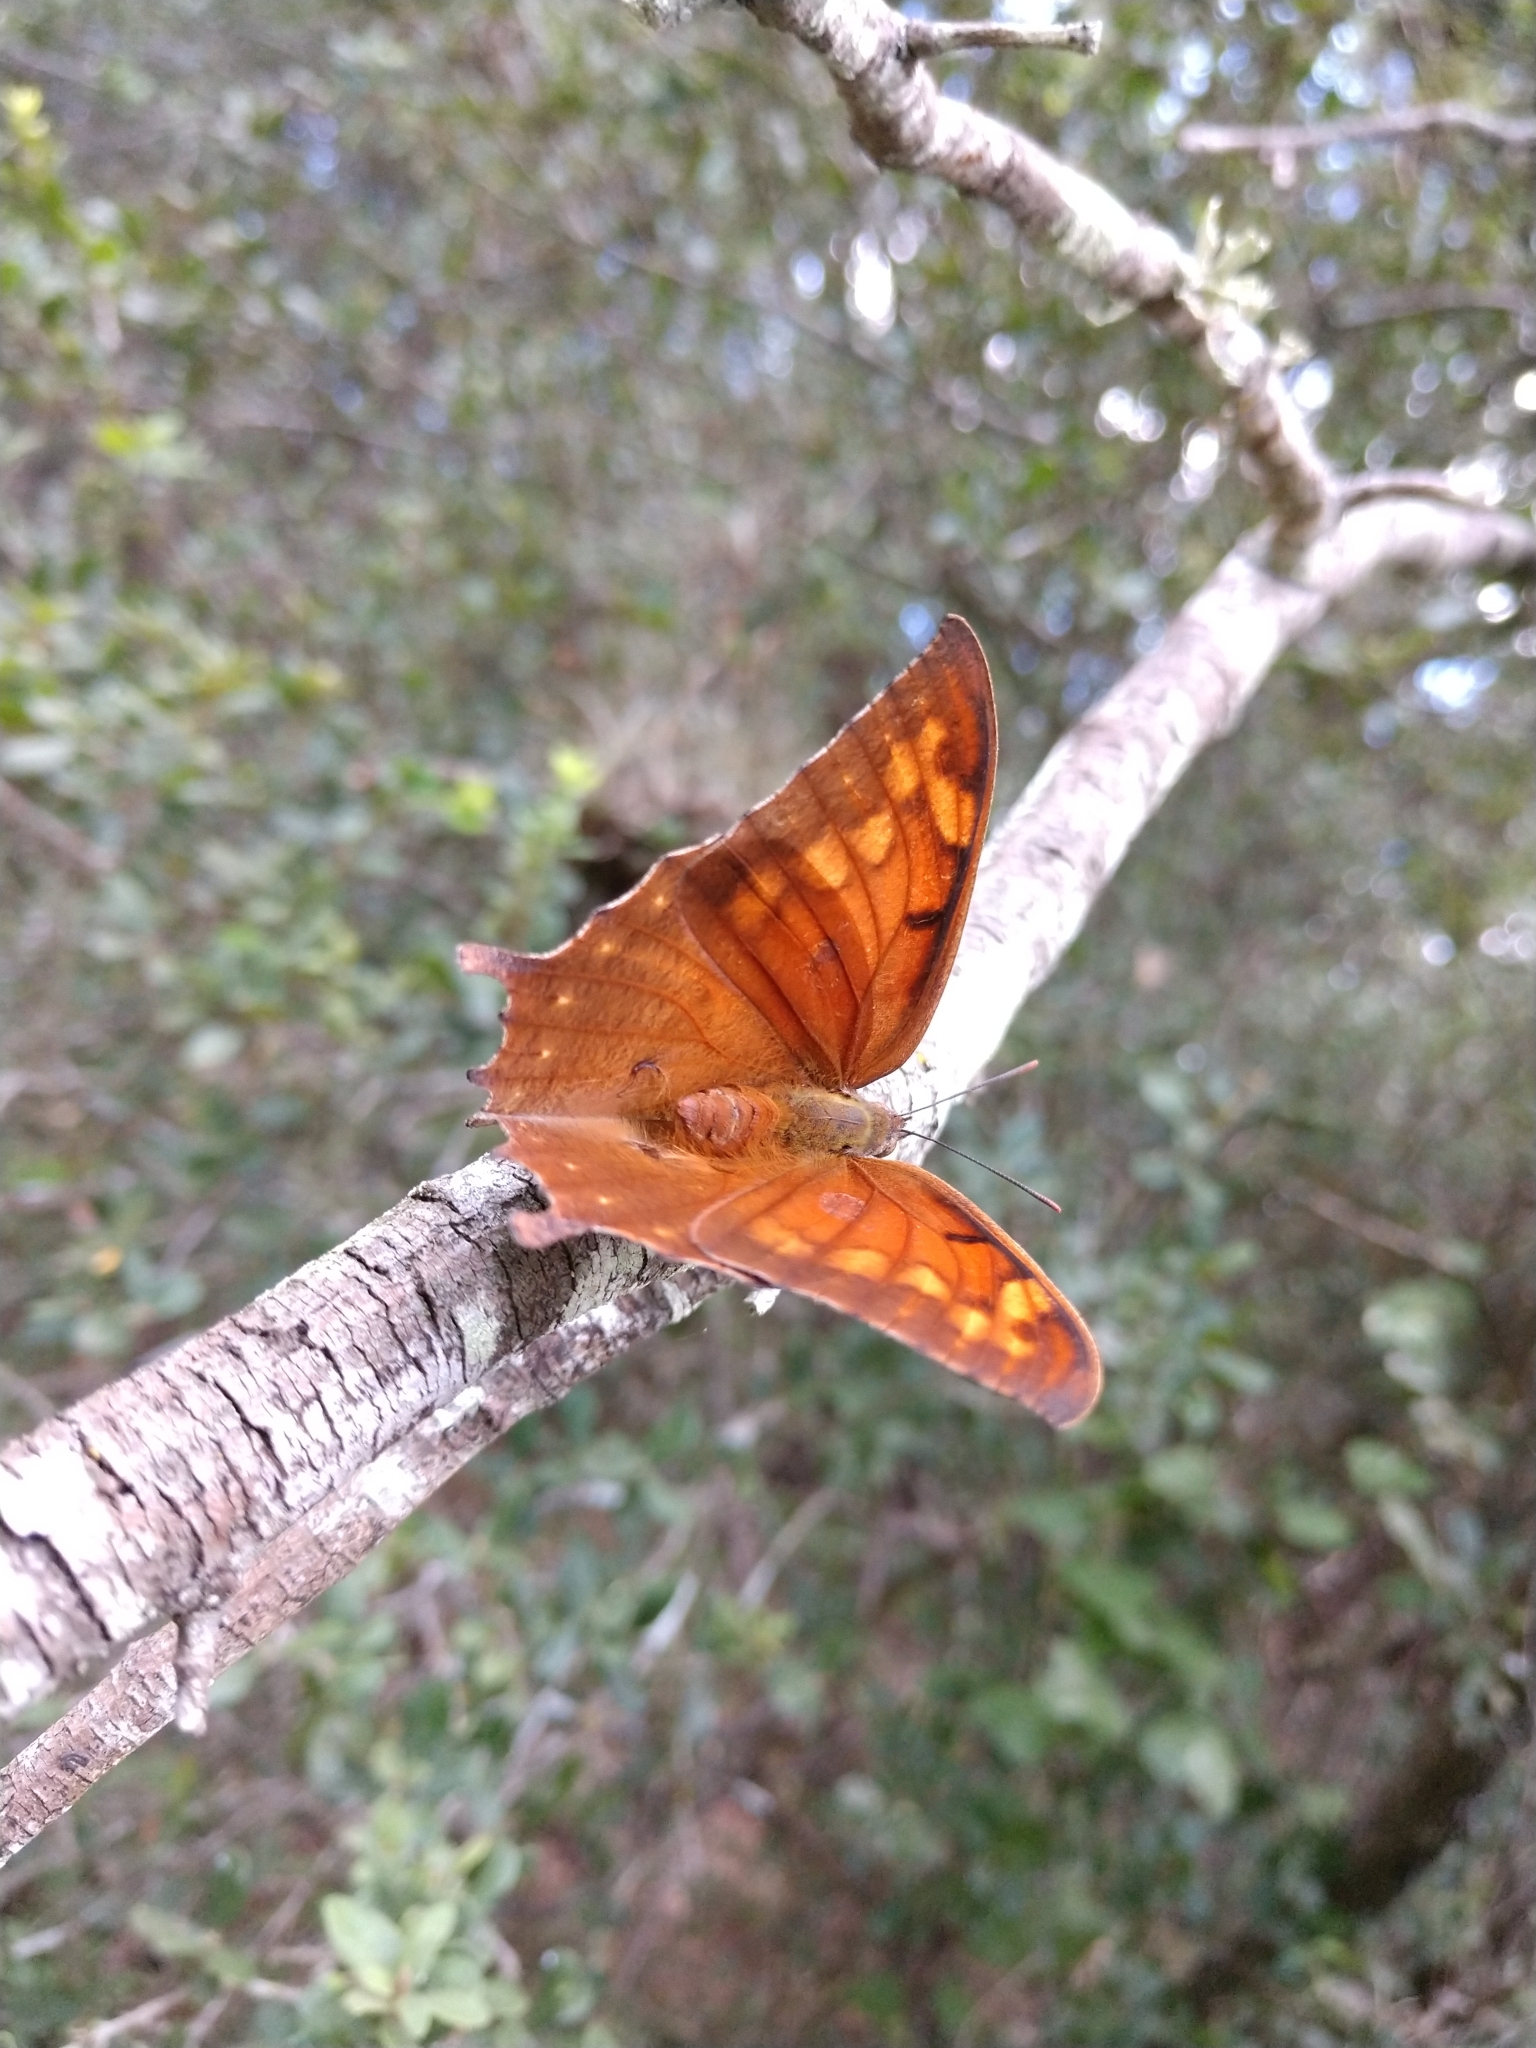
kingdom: Animalia
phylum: Arthropoda
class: Insecta
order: Lepidoptera
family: Nymphalidae
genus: Anaea
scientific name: Anaea aidea
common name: Tropical leafwing
